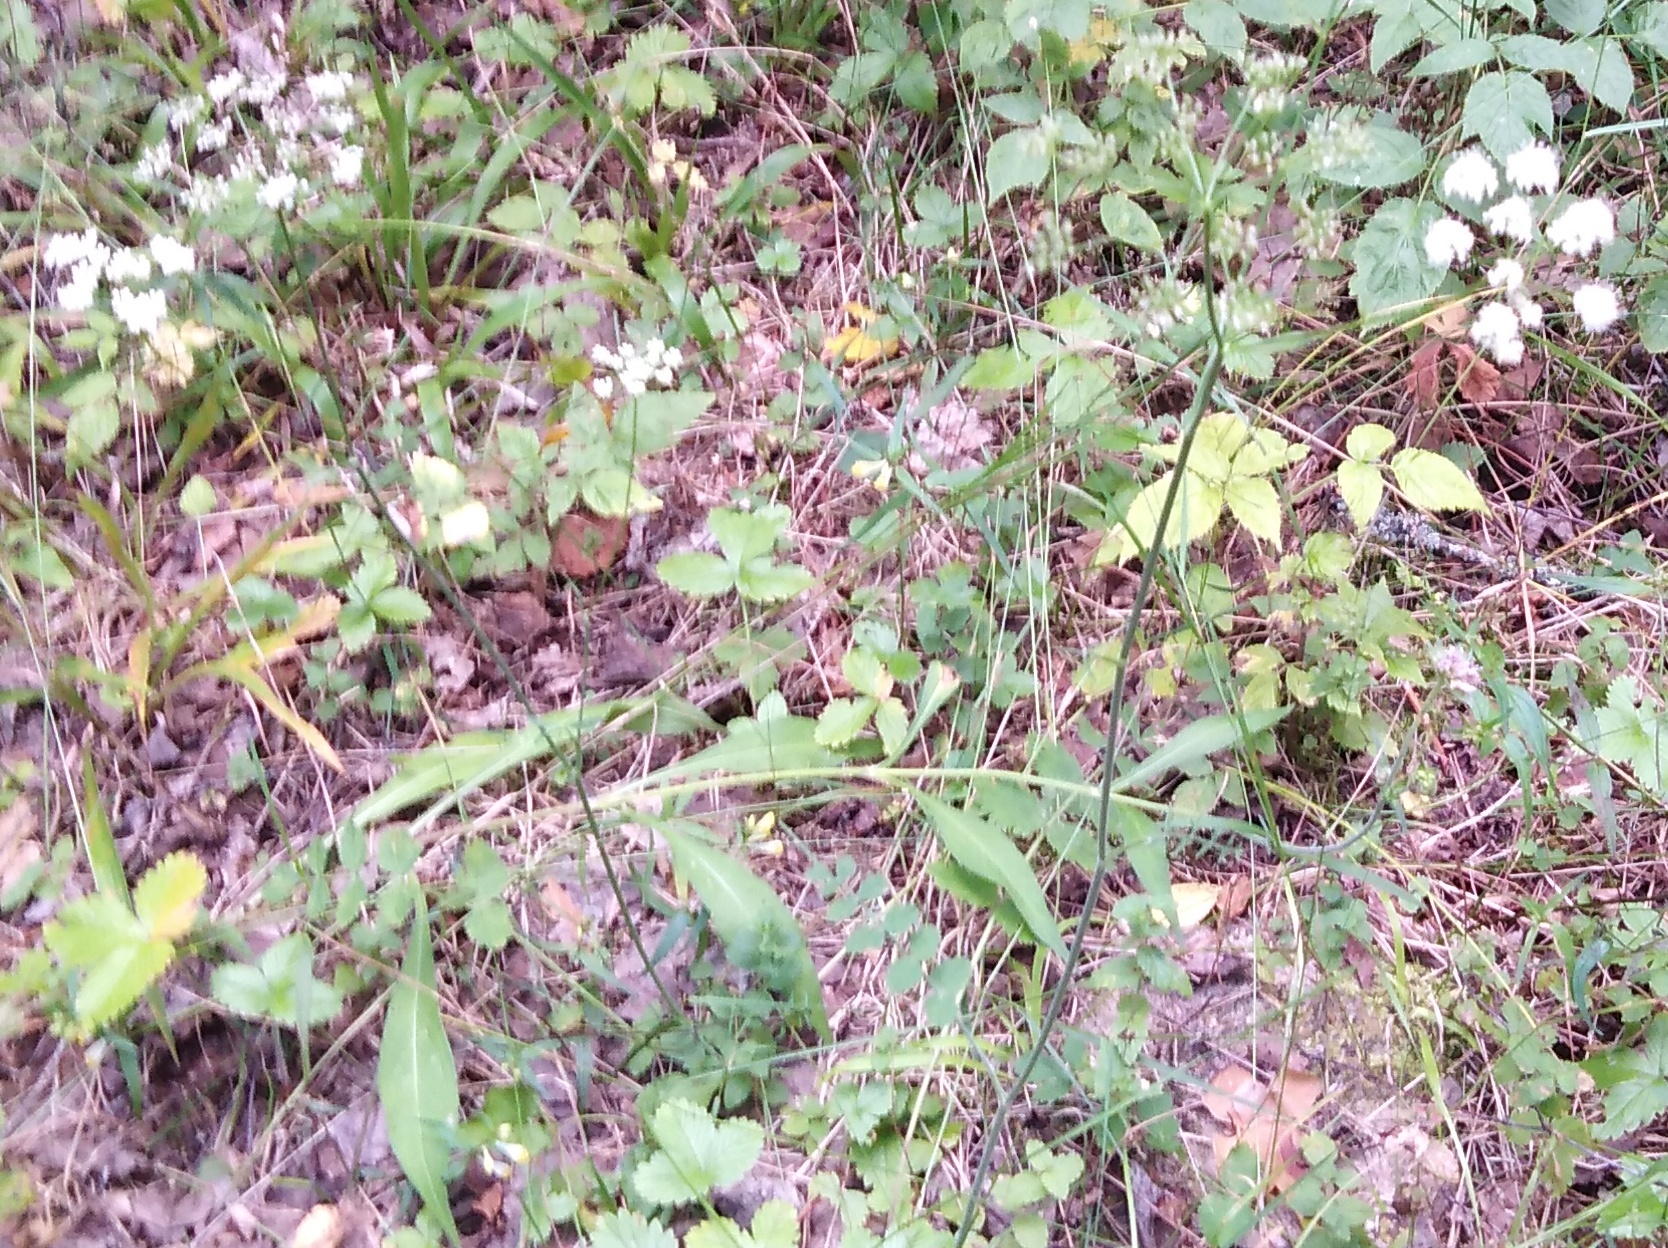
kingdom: Plantae
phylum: Tracheophyta
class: Magnoliopsida
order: Apiales
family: Apiaceae
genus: Pimpinella
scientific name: Pimpinella saxifraga
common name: Burnet-saxifrage
